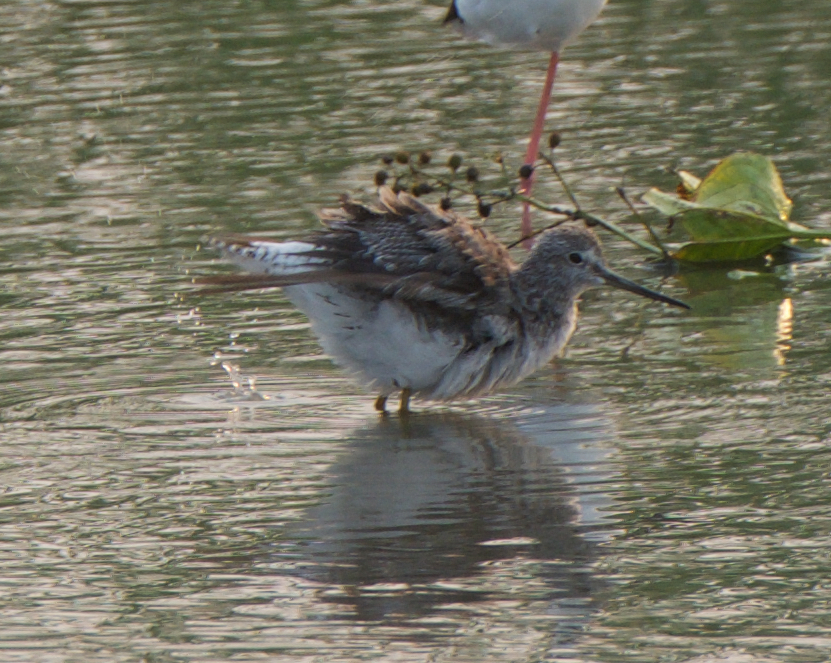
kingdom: Animalia
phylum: Chordata
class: Aves
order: Charadriiformes
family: Scolopacidae
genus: Tringa
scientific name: Tringa melanoleuca
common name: Greater yellowlegs
